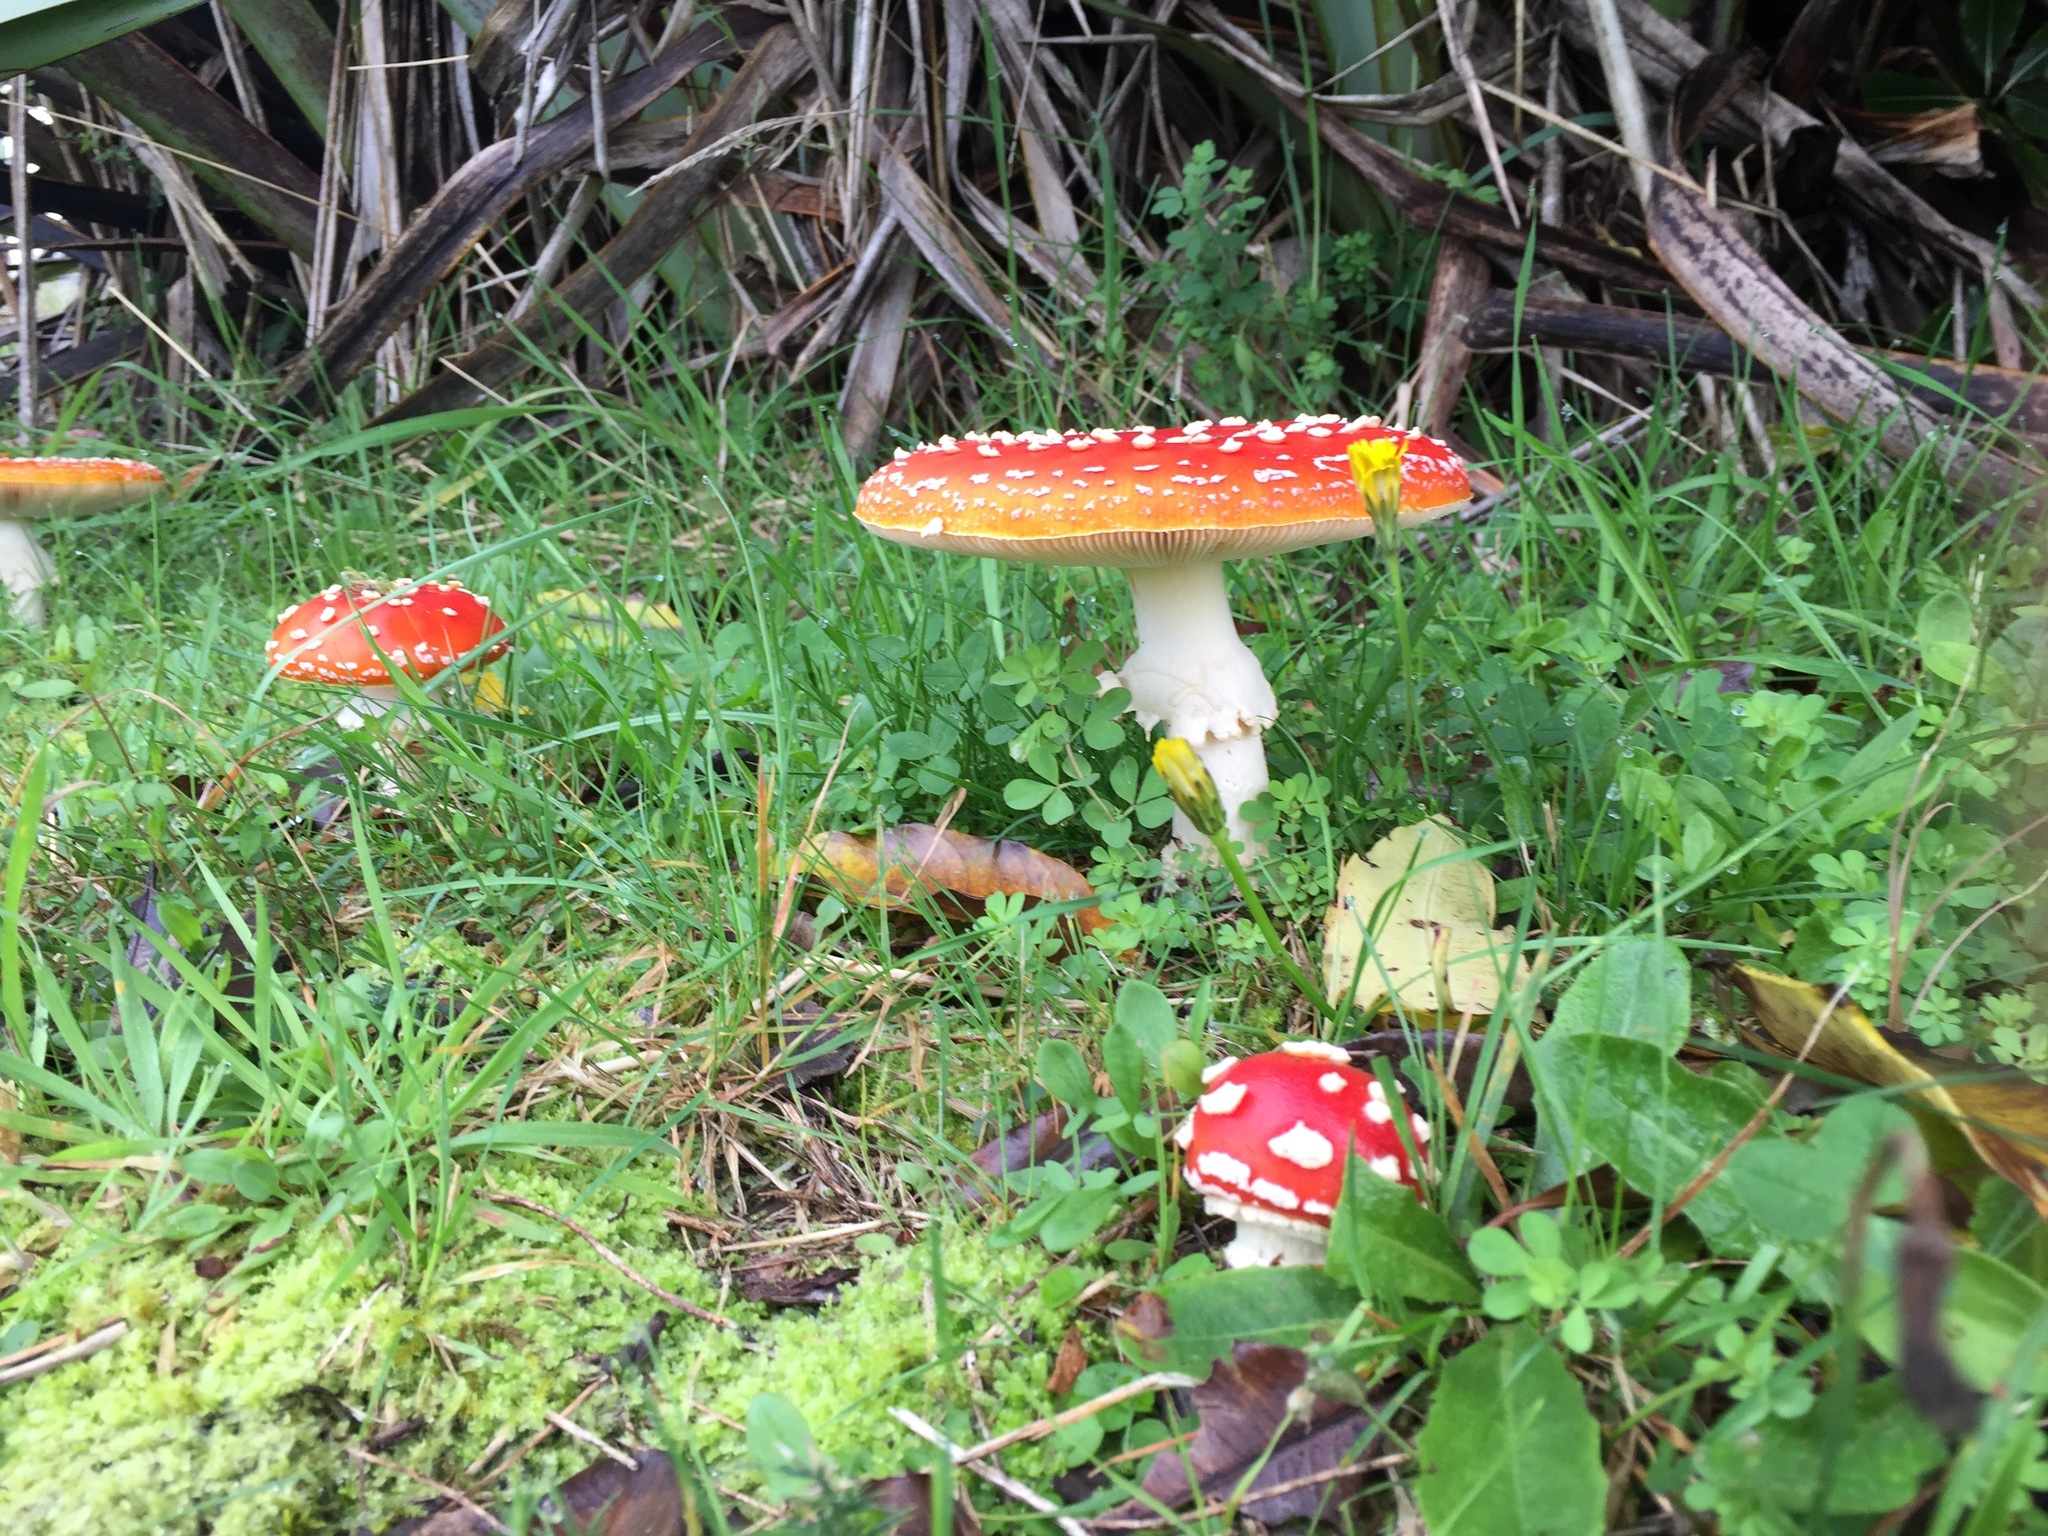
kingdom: Fungi
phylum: Basidiomycota
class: Agaricomycetes
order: Agaricales
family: Amanitaceae
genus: Amanita
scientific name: Amanita muscaria
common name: Fly agaric
